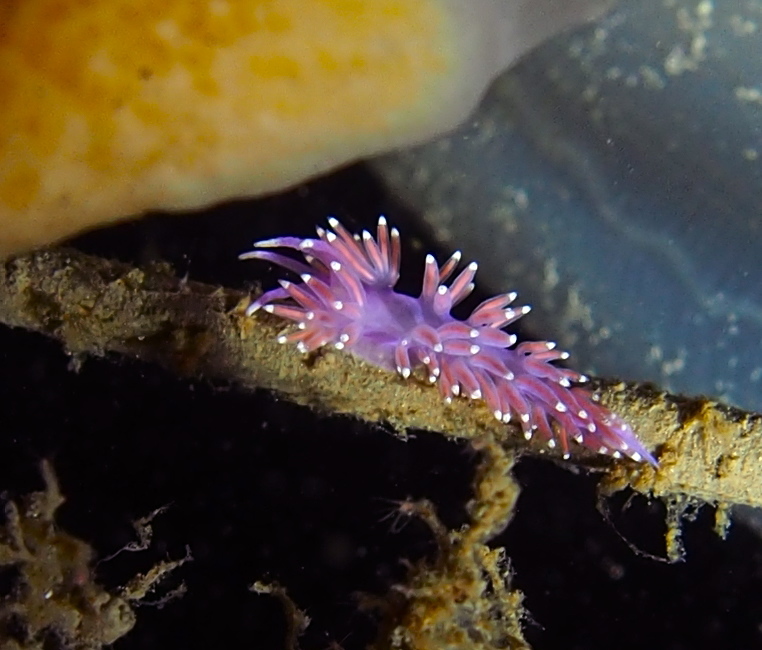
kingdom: Animalia
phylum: Mollusca
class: Gastropoda
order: Nudibranchia
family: Flabellinidae
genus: Edmundsella
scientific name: Edmundsella pedata
